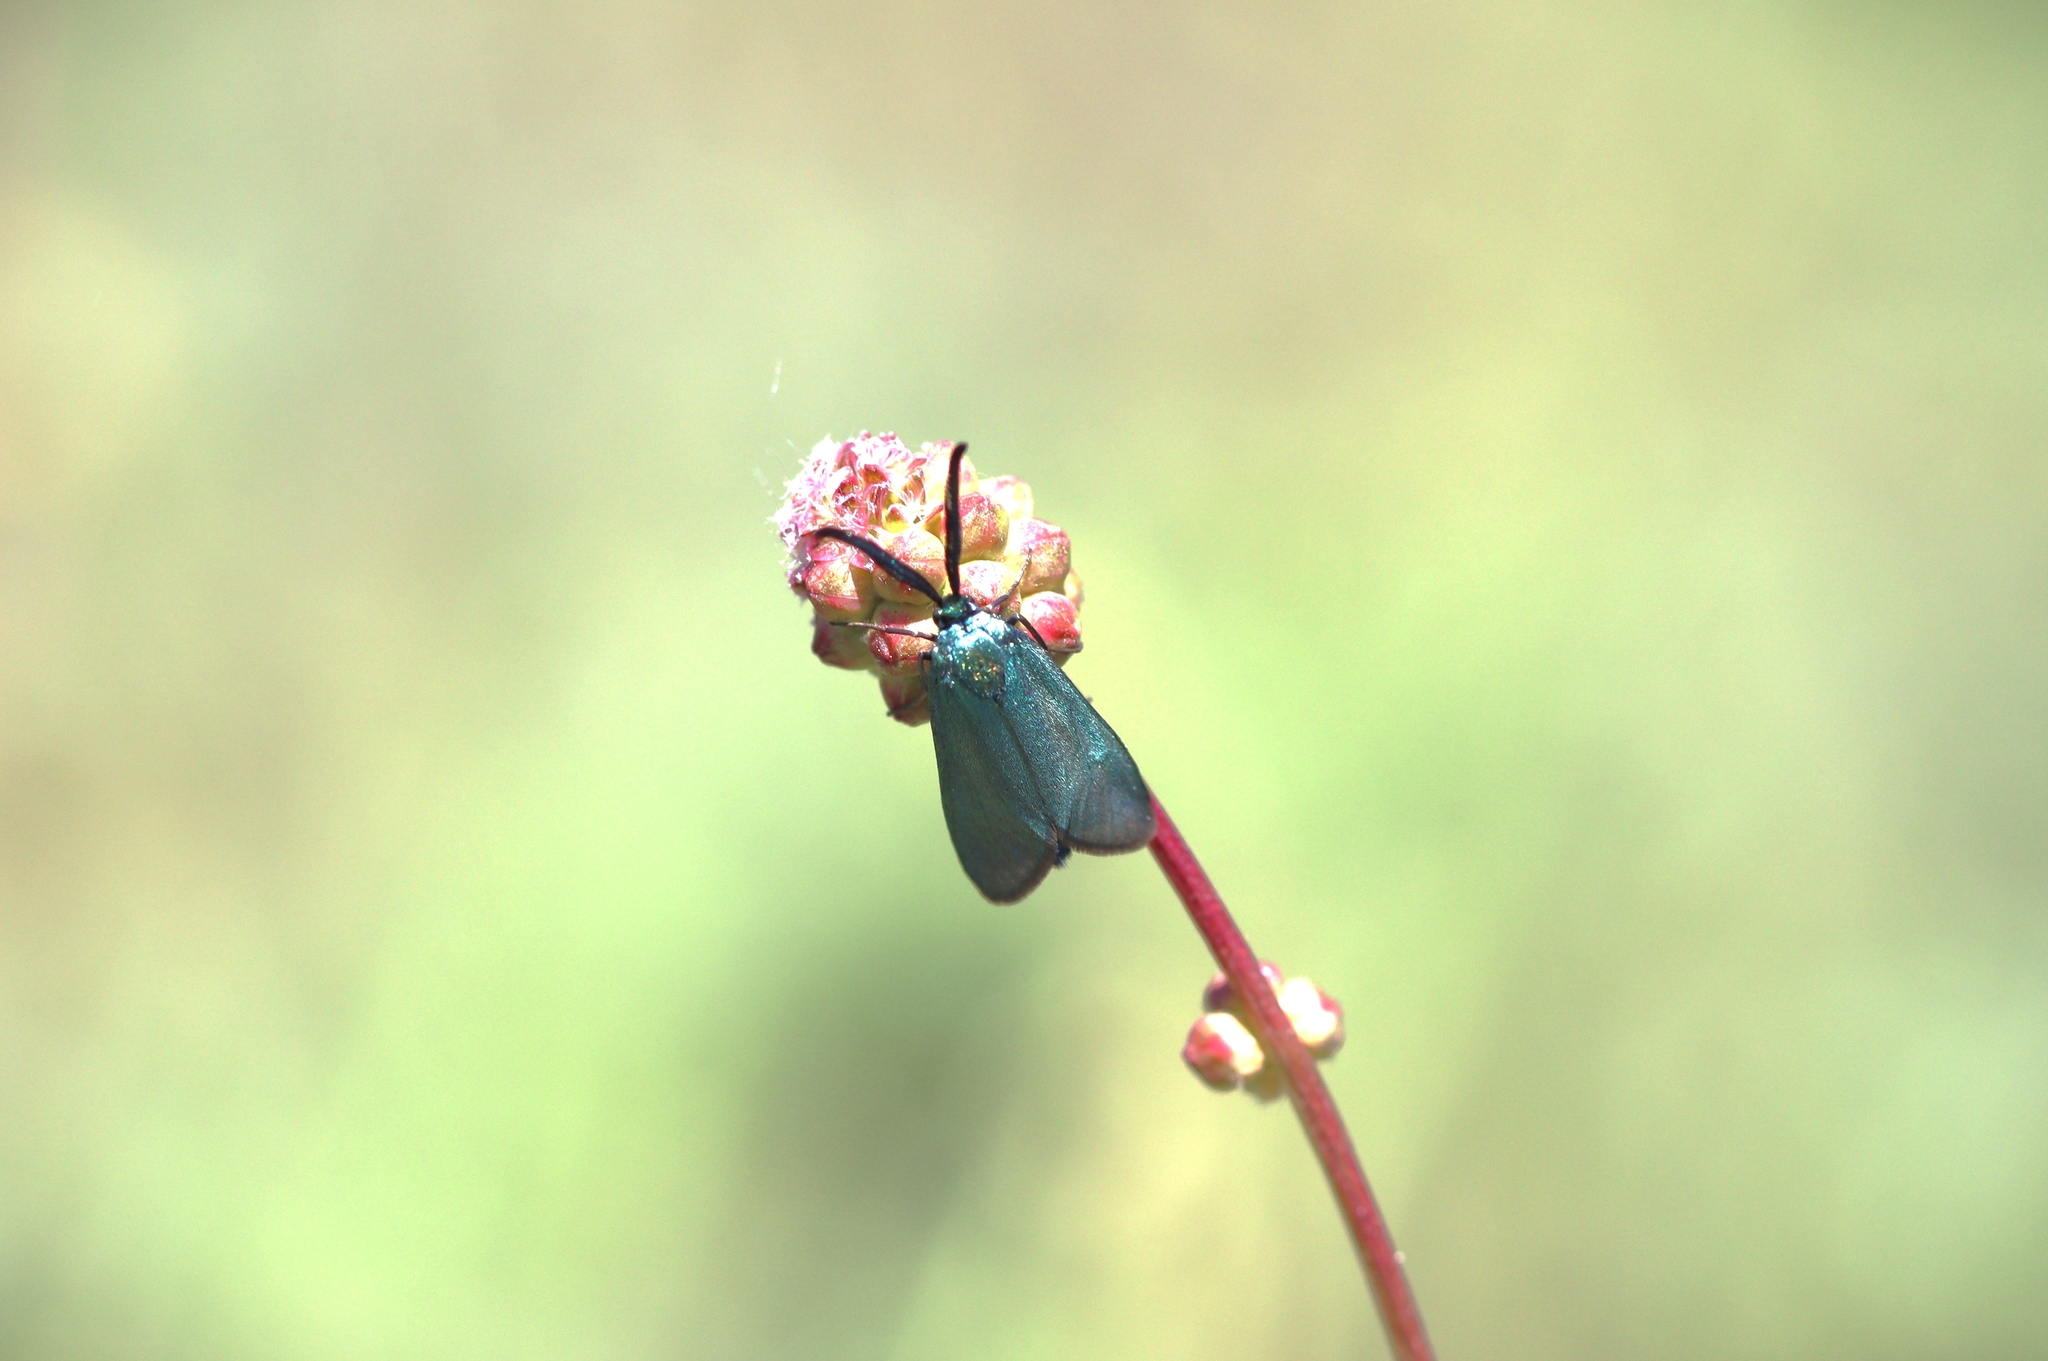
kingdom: Animalia
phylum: Arthropoda
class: Insecta
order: Lepidoptera
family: Zygaenidae
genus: Adscita
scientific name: Adscita statices
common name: Forester
